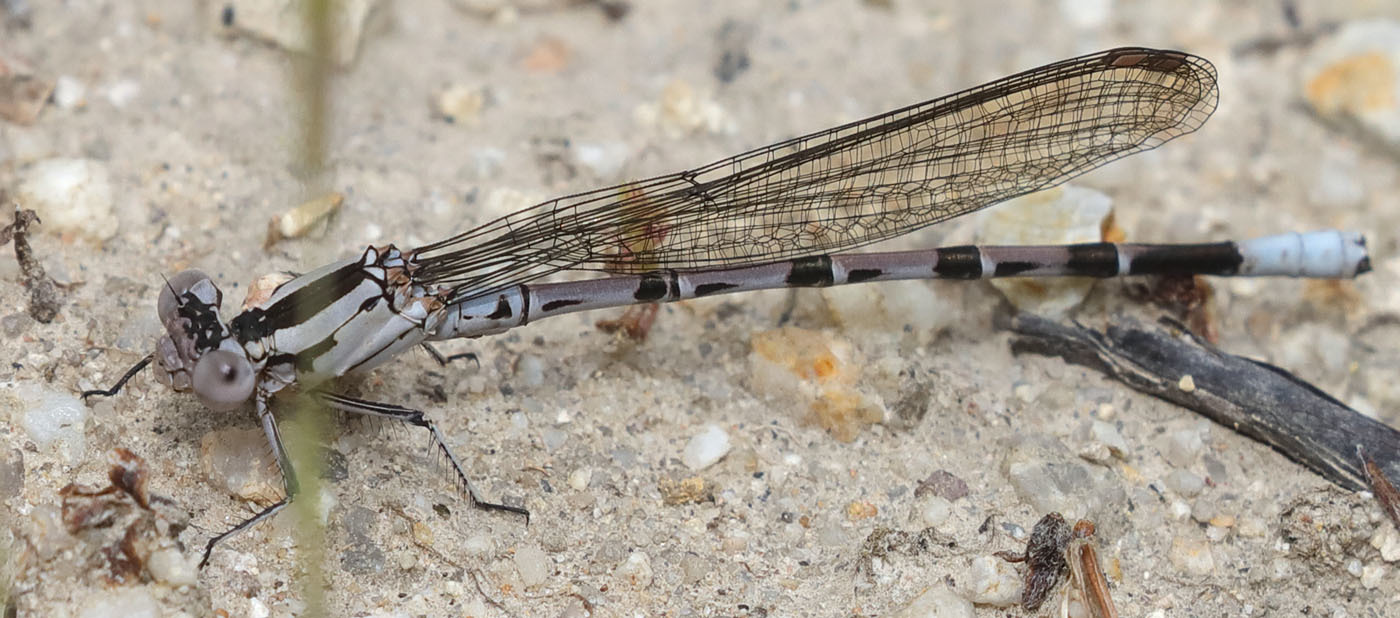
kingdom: Animalia
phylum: Arthropoda
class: Insecta
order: Odonata
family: Coenagrionidae
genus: Argia
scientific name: Argia vivida
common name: Vivid dancer
